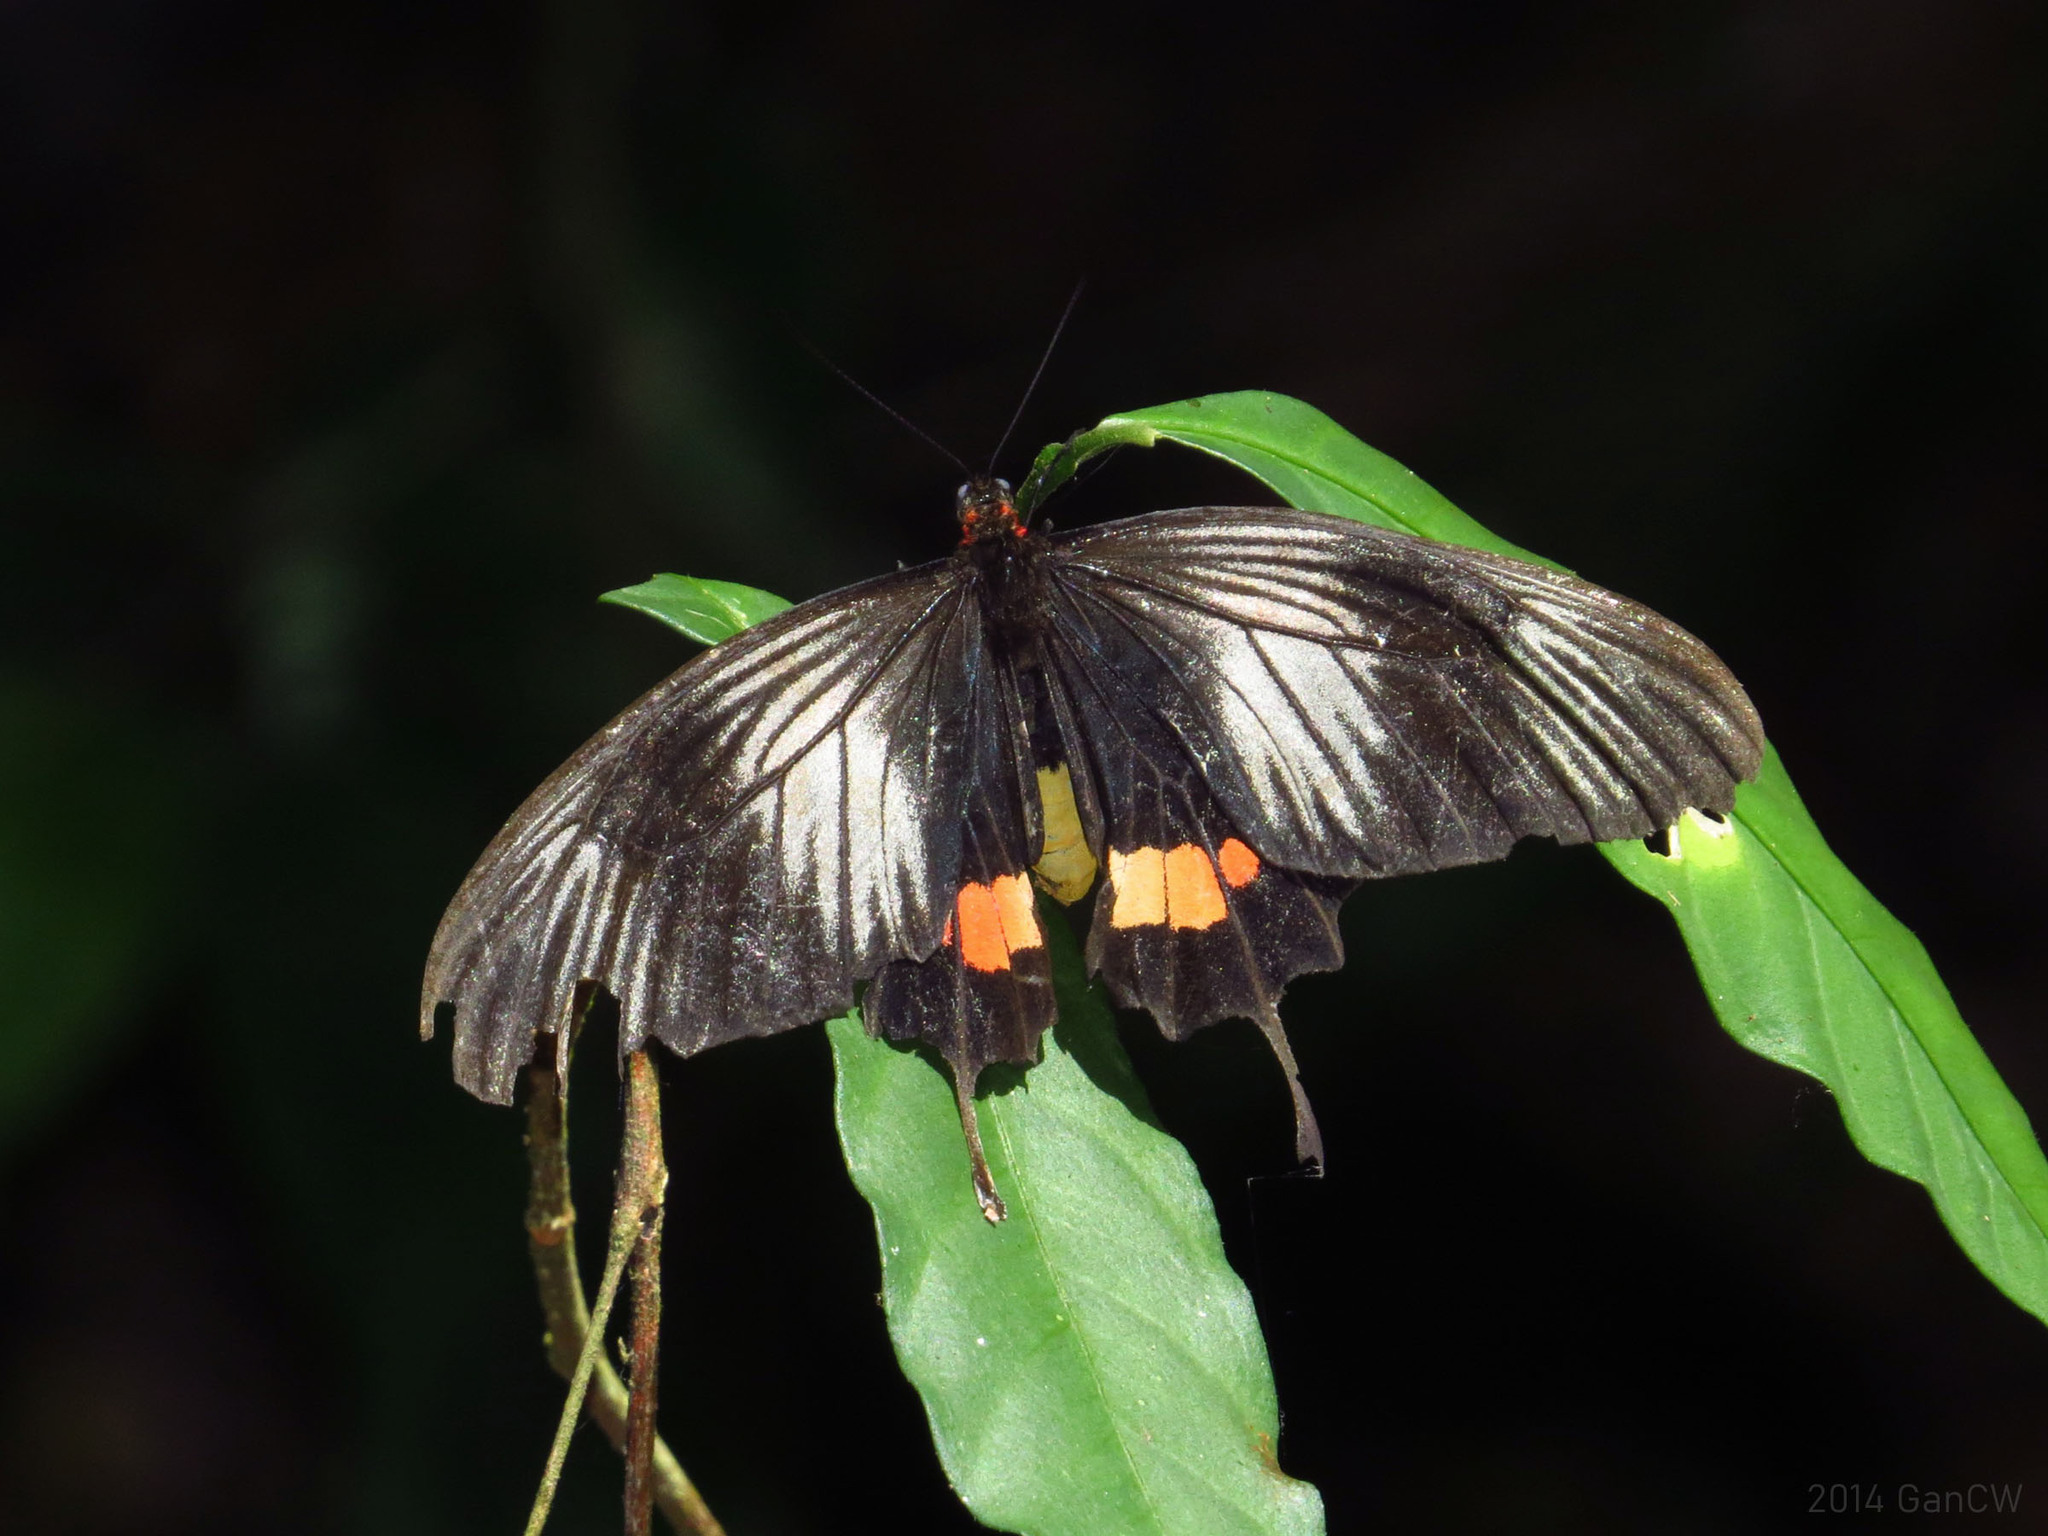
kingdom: Animalia
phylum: Arthropoda
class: Insecta
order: Lepidoptera
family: Papilionidae
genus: Losaria
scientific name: Losaria neptunus
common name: Yellow-bodied clubtail
